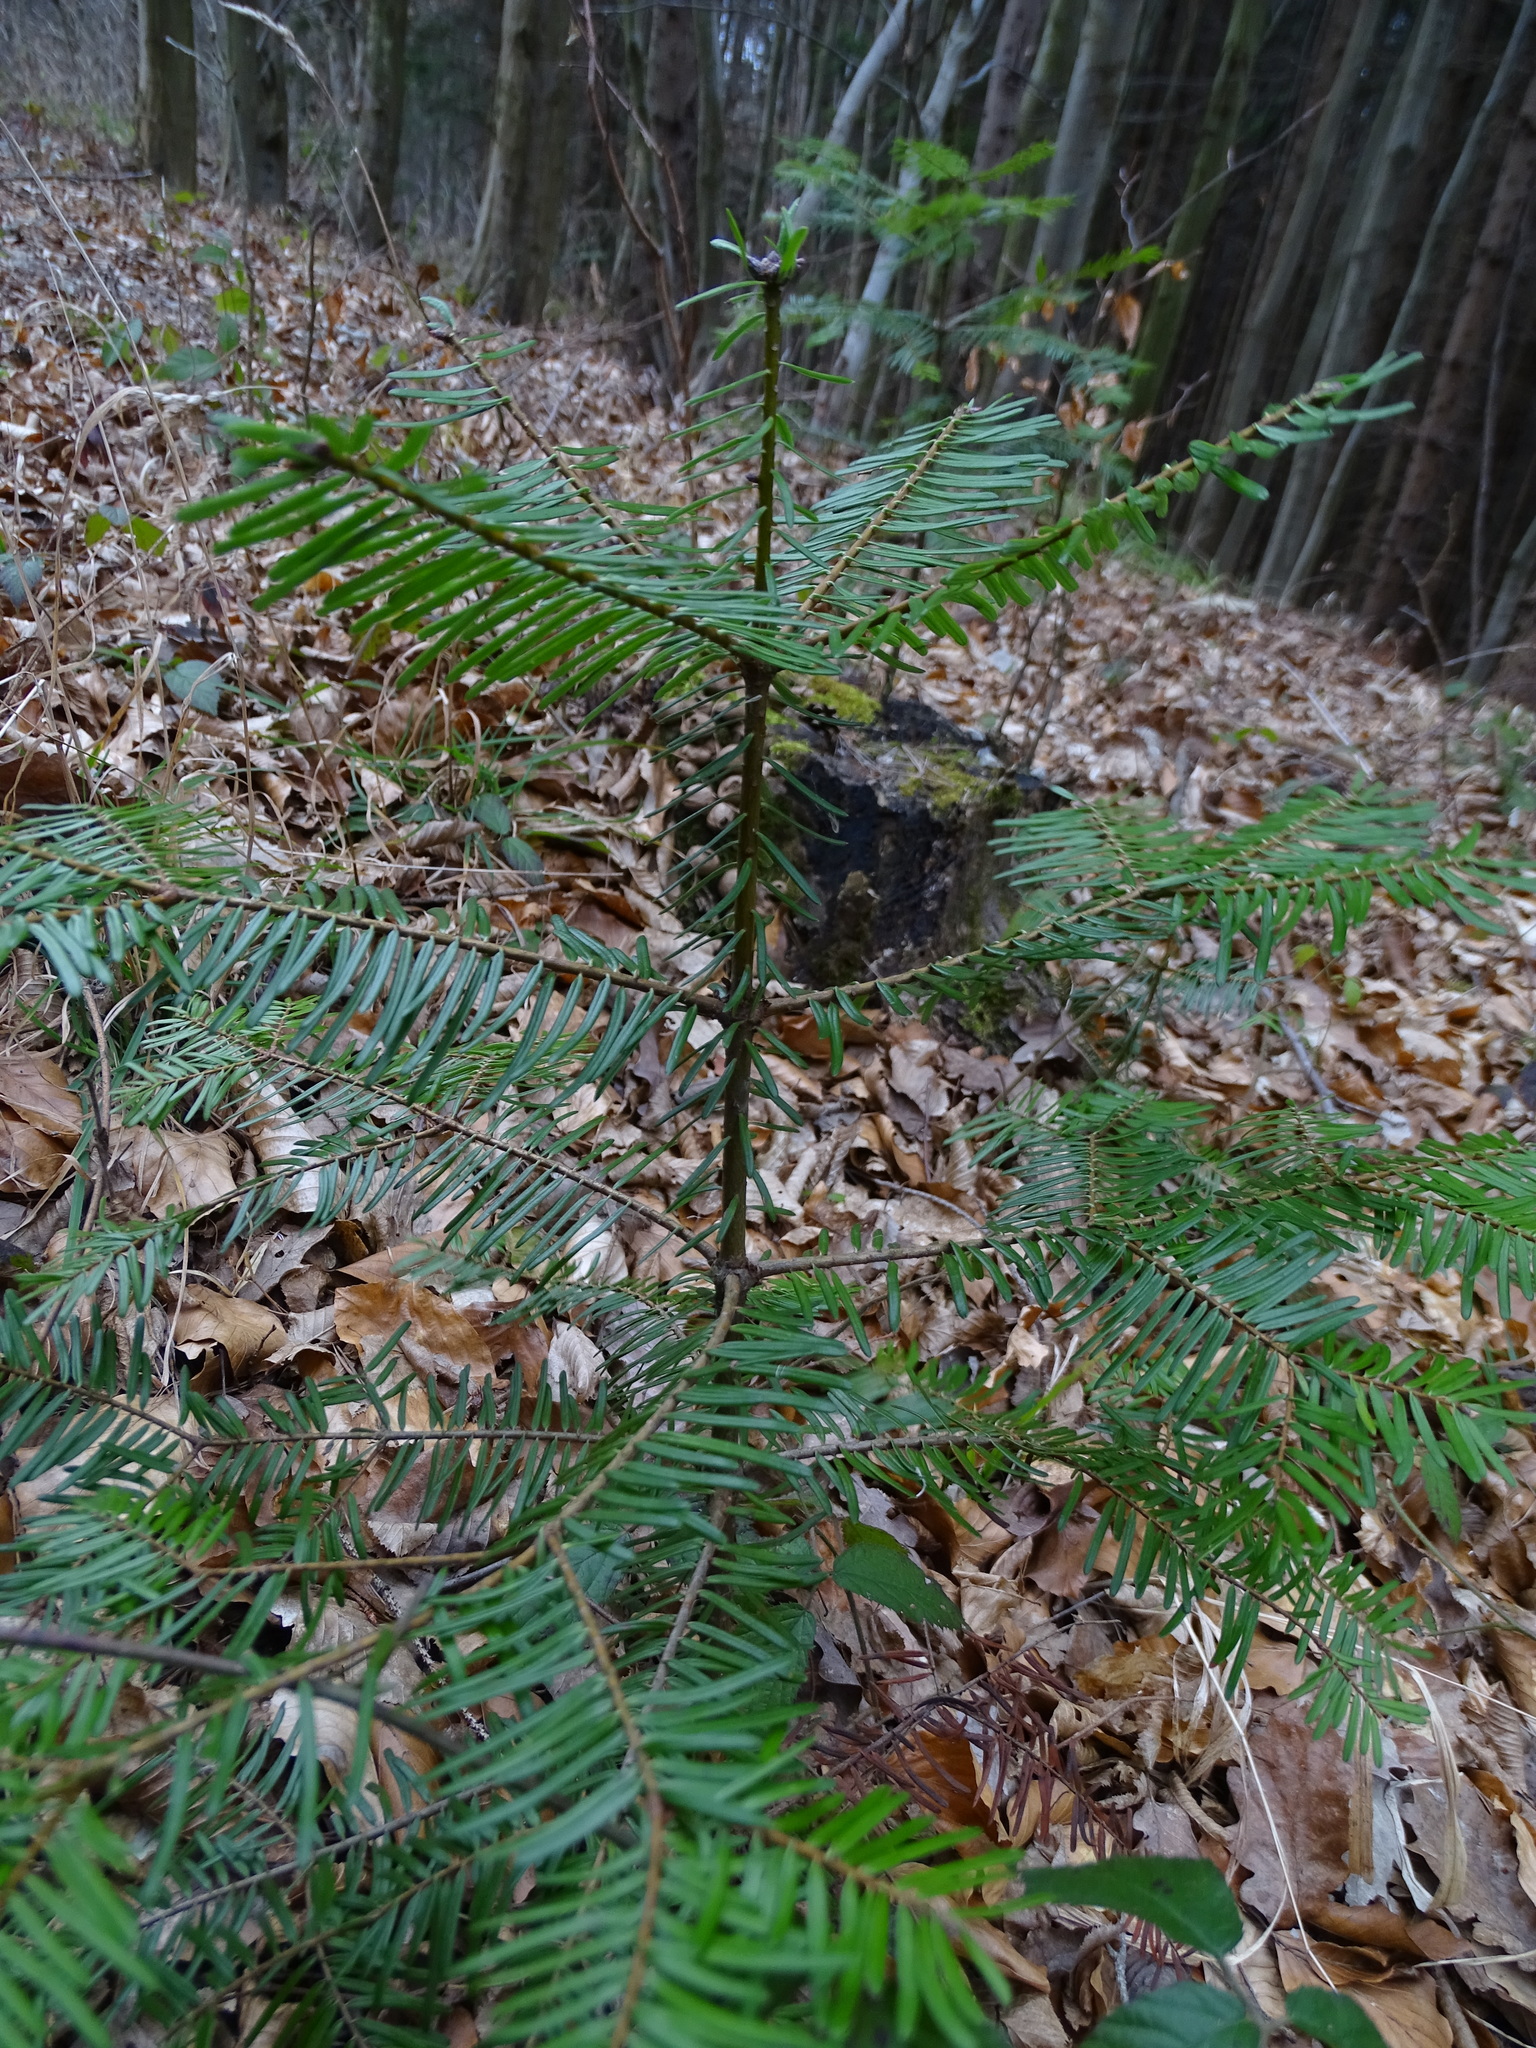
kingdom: Plantae
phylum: Tracheophyta
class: Pinopsida
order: Pinales
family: Pinaceae
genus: Abies
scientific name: Abies alba
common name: Silver fir
